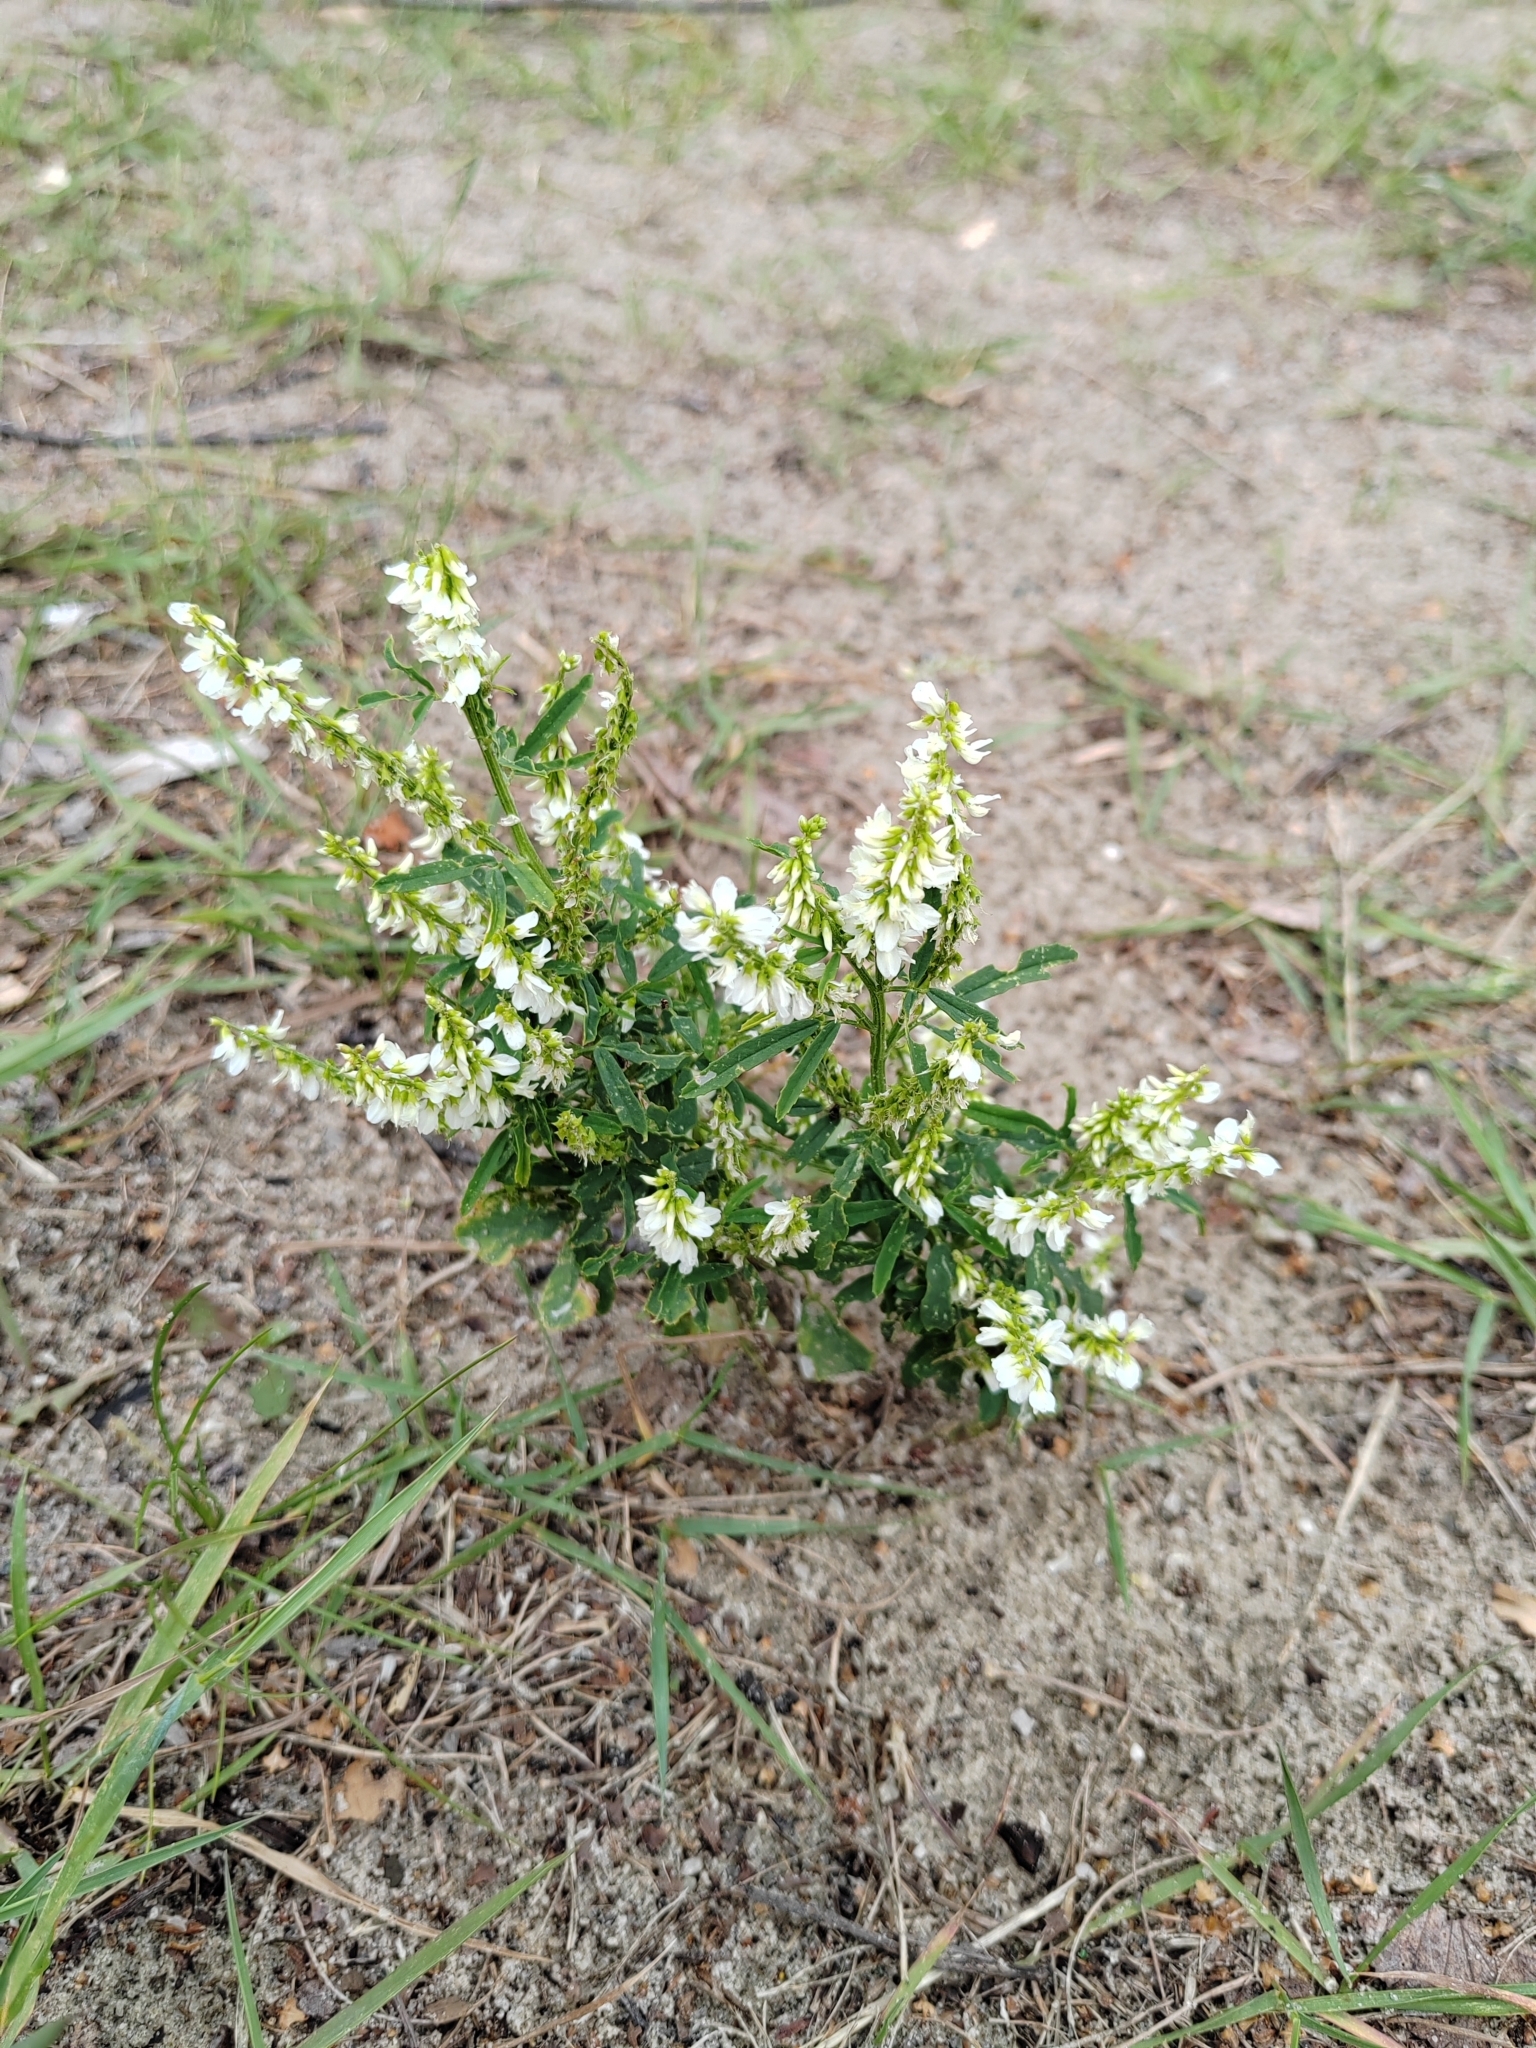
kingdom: Plantae
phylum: Tracheophyta
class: Magnoliopsida
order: Fabales
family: Fabaceae
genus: Melilotus
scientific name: Melilotus albus
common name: White melilot
